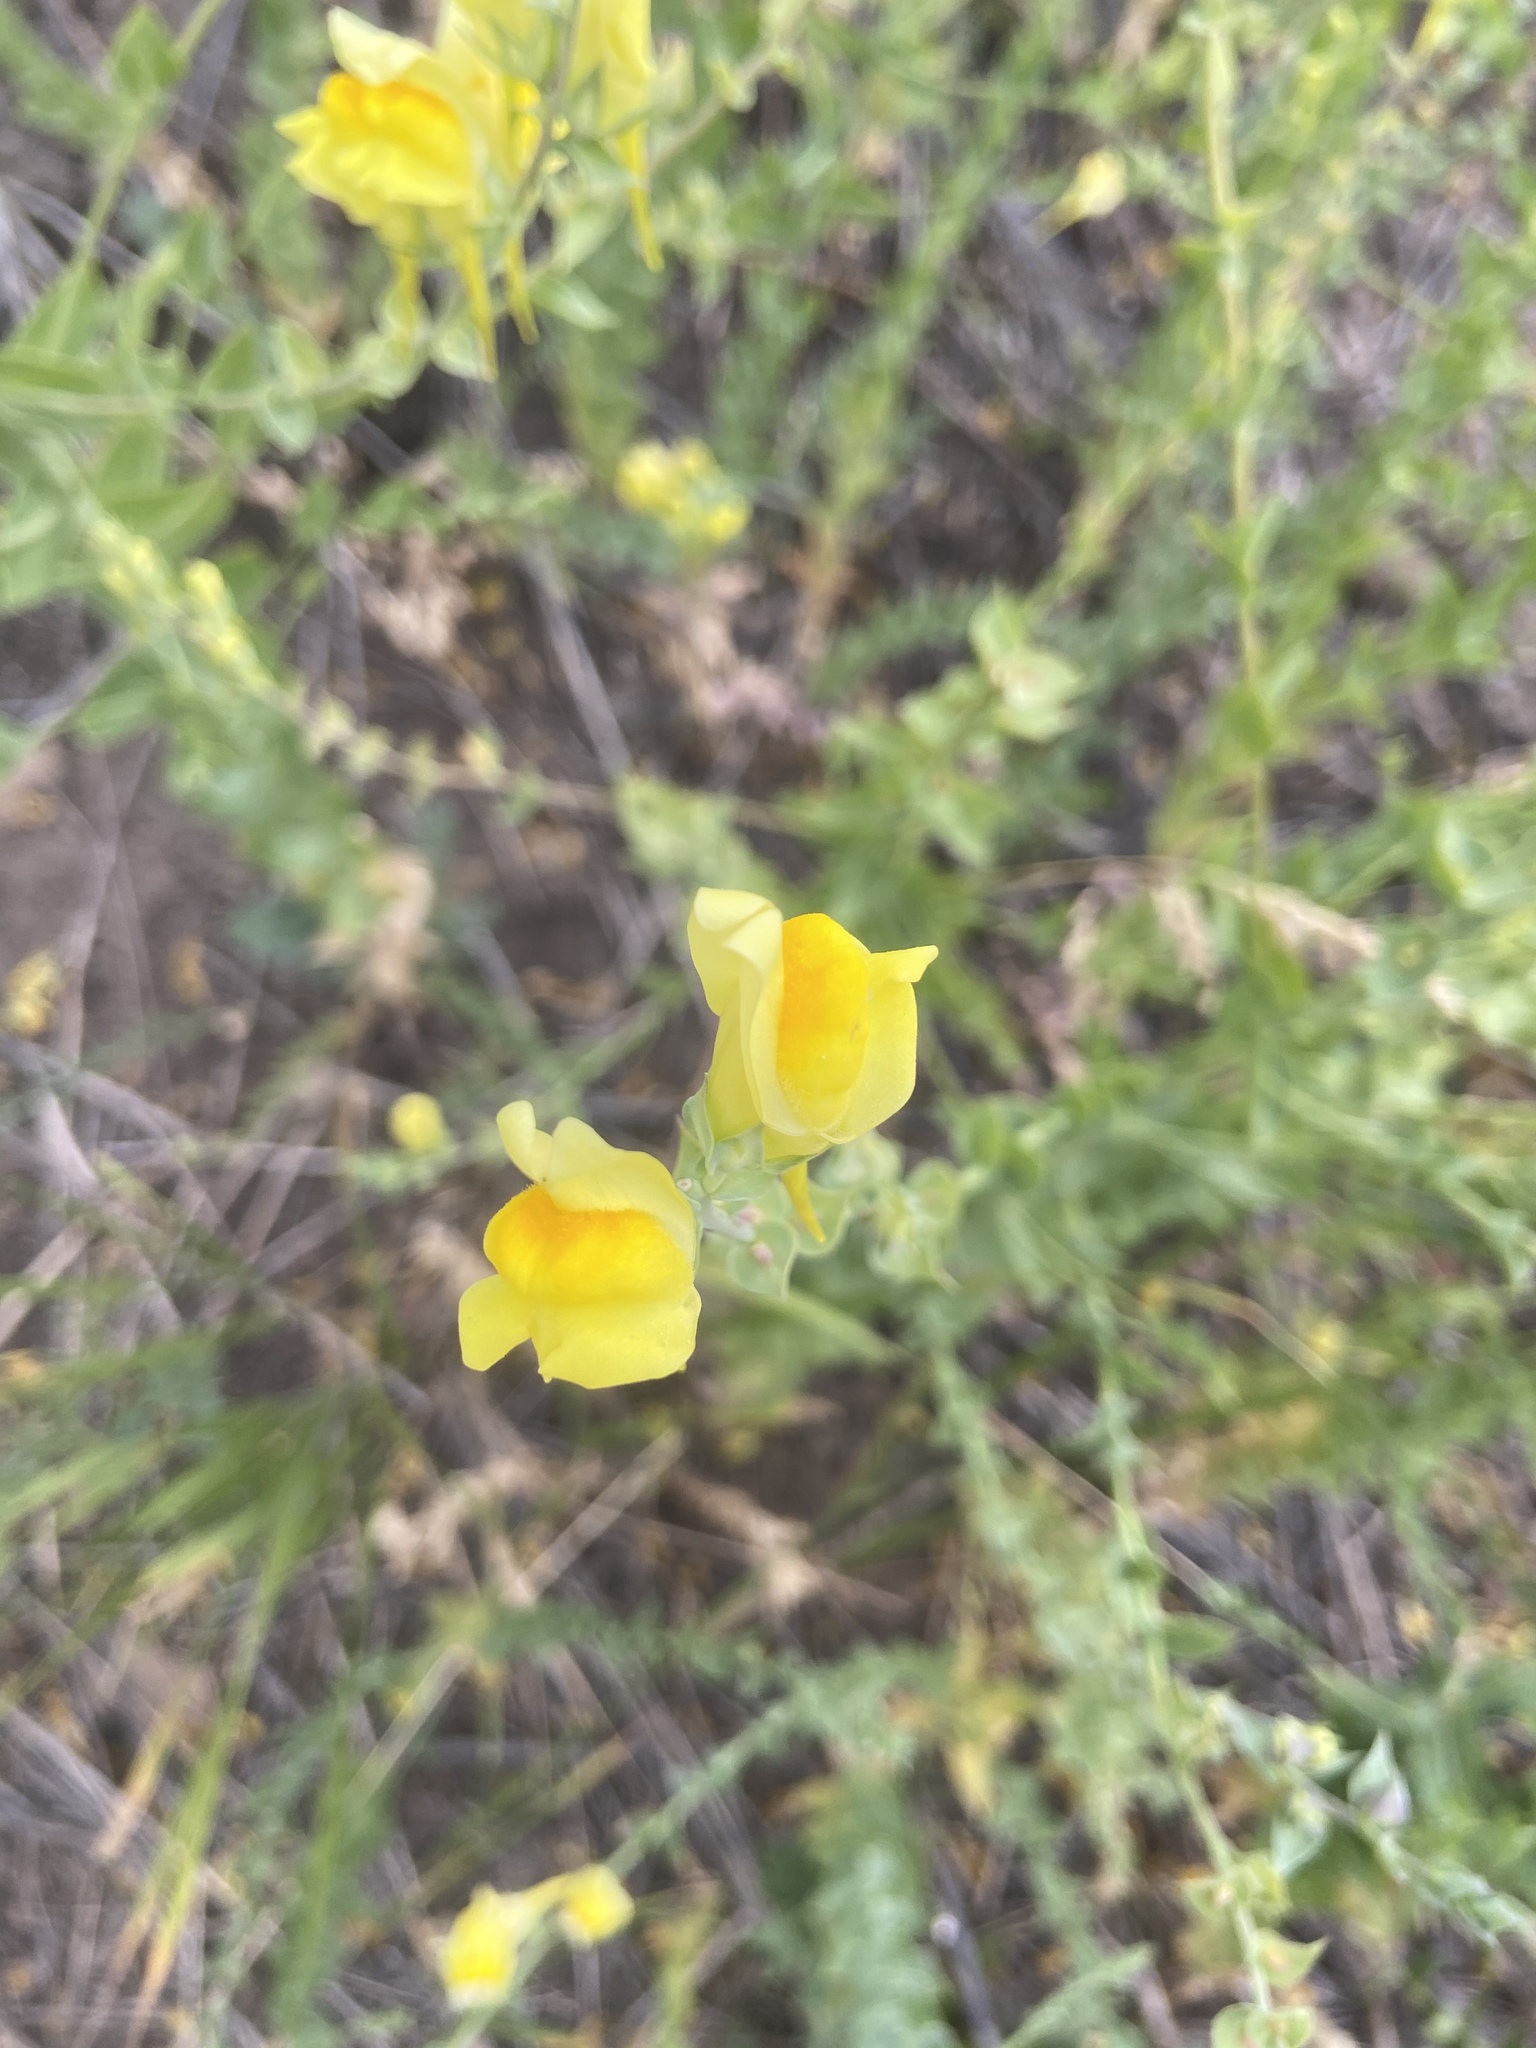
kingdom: Plantae
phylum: Tracheophyta
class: Magnoliopsida
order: Lamiales
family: Plantaginaceae
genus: Linaria
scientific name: Linaria dalmatica
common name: Dalmatian toadflax
